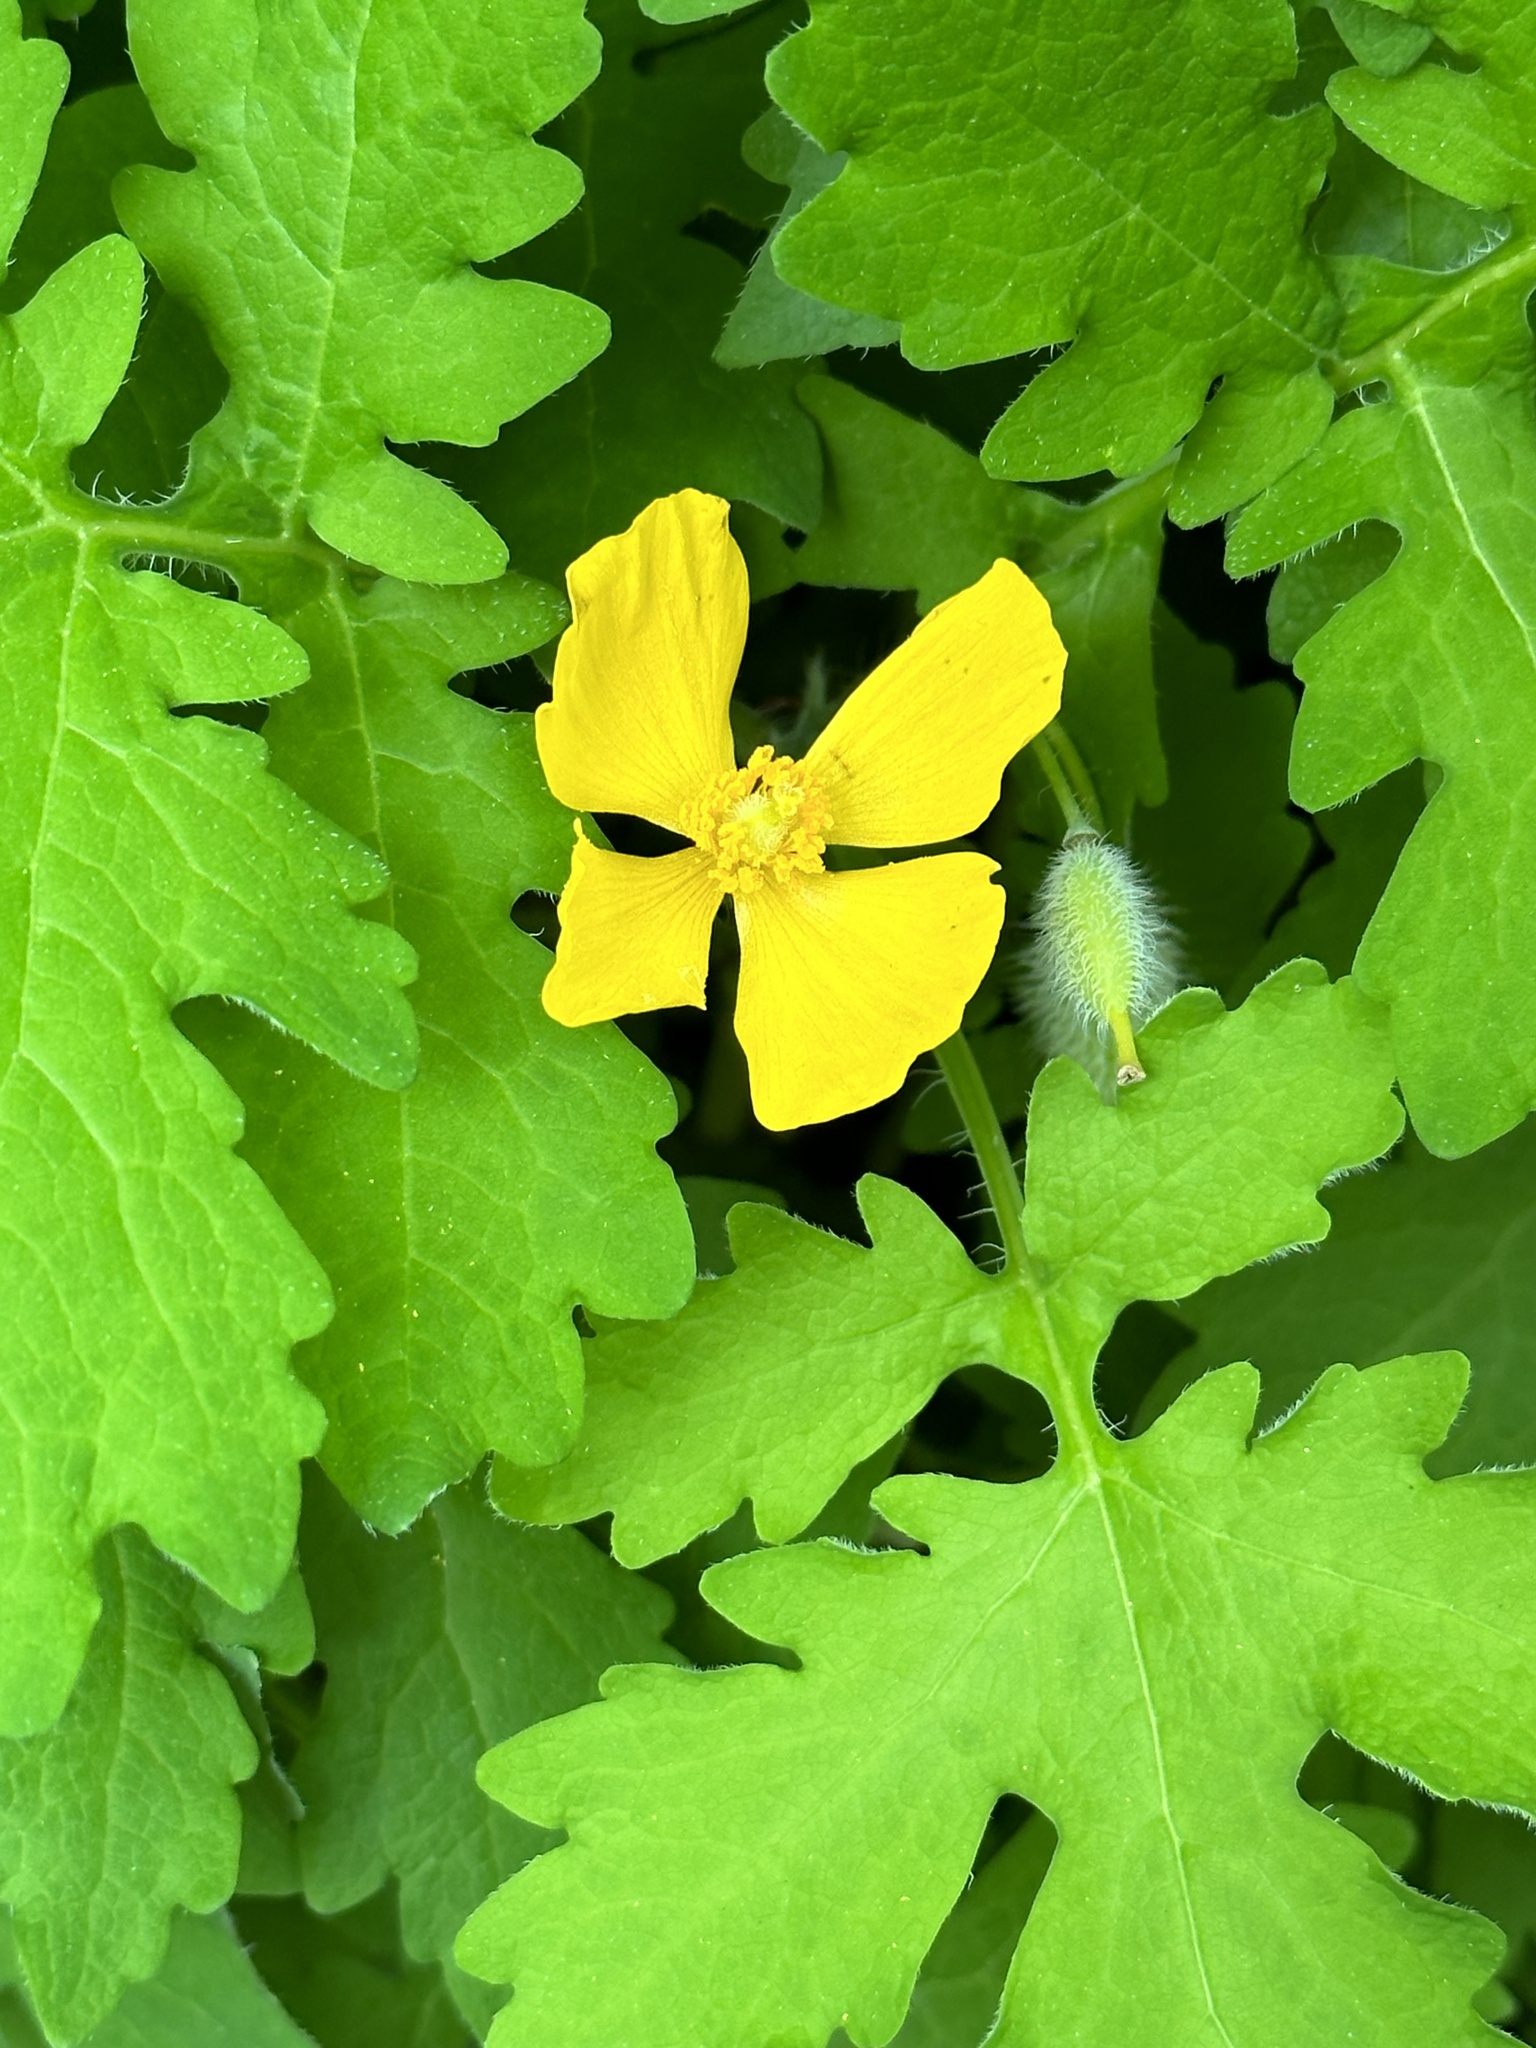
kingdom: Plantae
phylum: Tracheophyta
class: Magnoliopsida
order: Ranunculales
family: Papaveraceae
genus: Stylophorum
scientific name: Stylophorum diphyllum
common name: Celandine poppy
